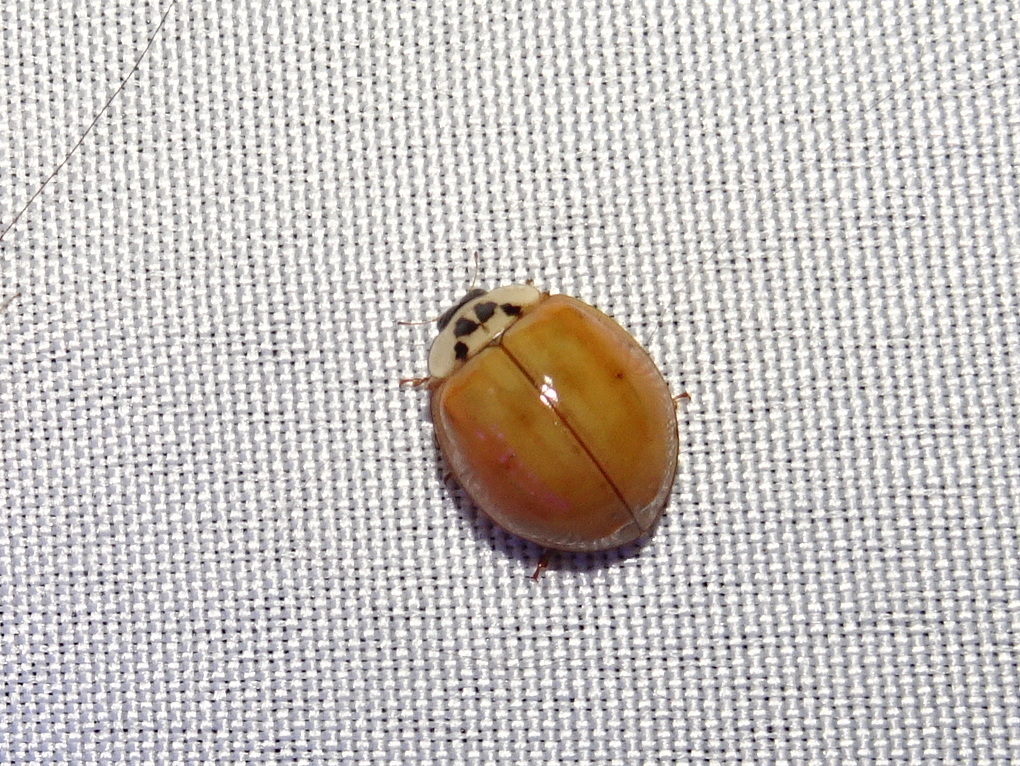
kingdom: Animalia
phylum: Arthropoda
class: Insecta
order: Coleoptera
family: Coccinellidae
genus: Harmonia
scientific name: Harmonia axyridis
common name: Harlequin ladybird
